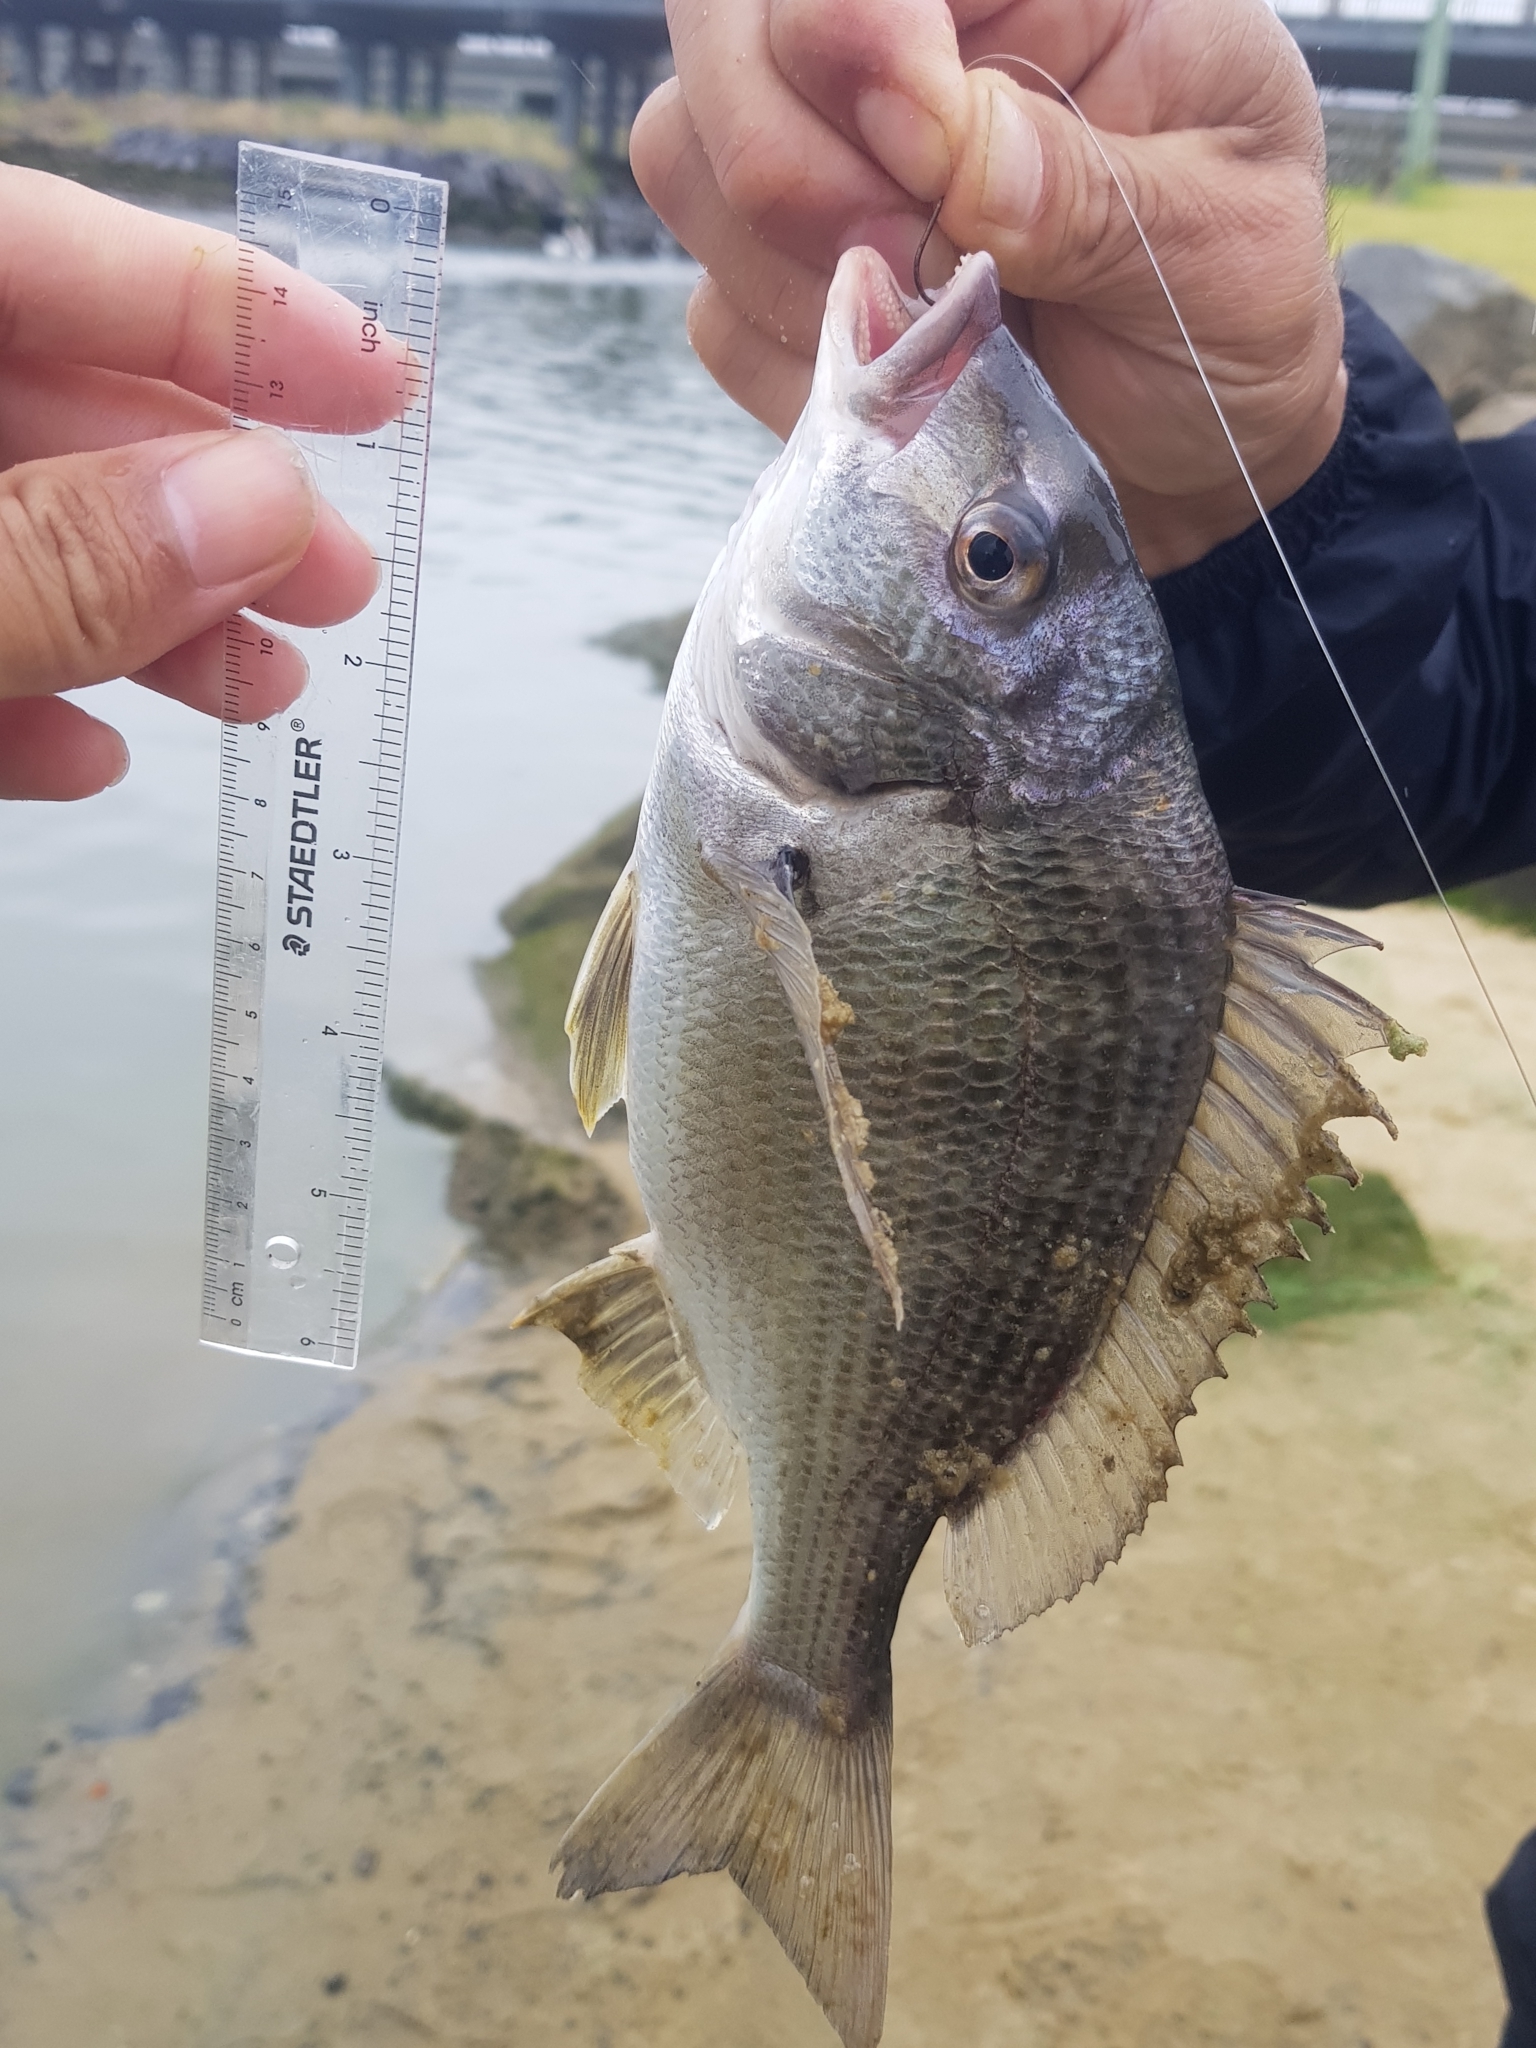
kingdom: Animalia
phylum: Chordata
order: Perciformes
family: Sparidae
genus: Acanthopagrus
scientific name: Acanthopagrus butcheri
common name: Black bream
